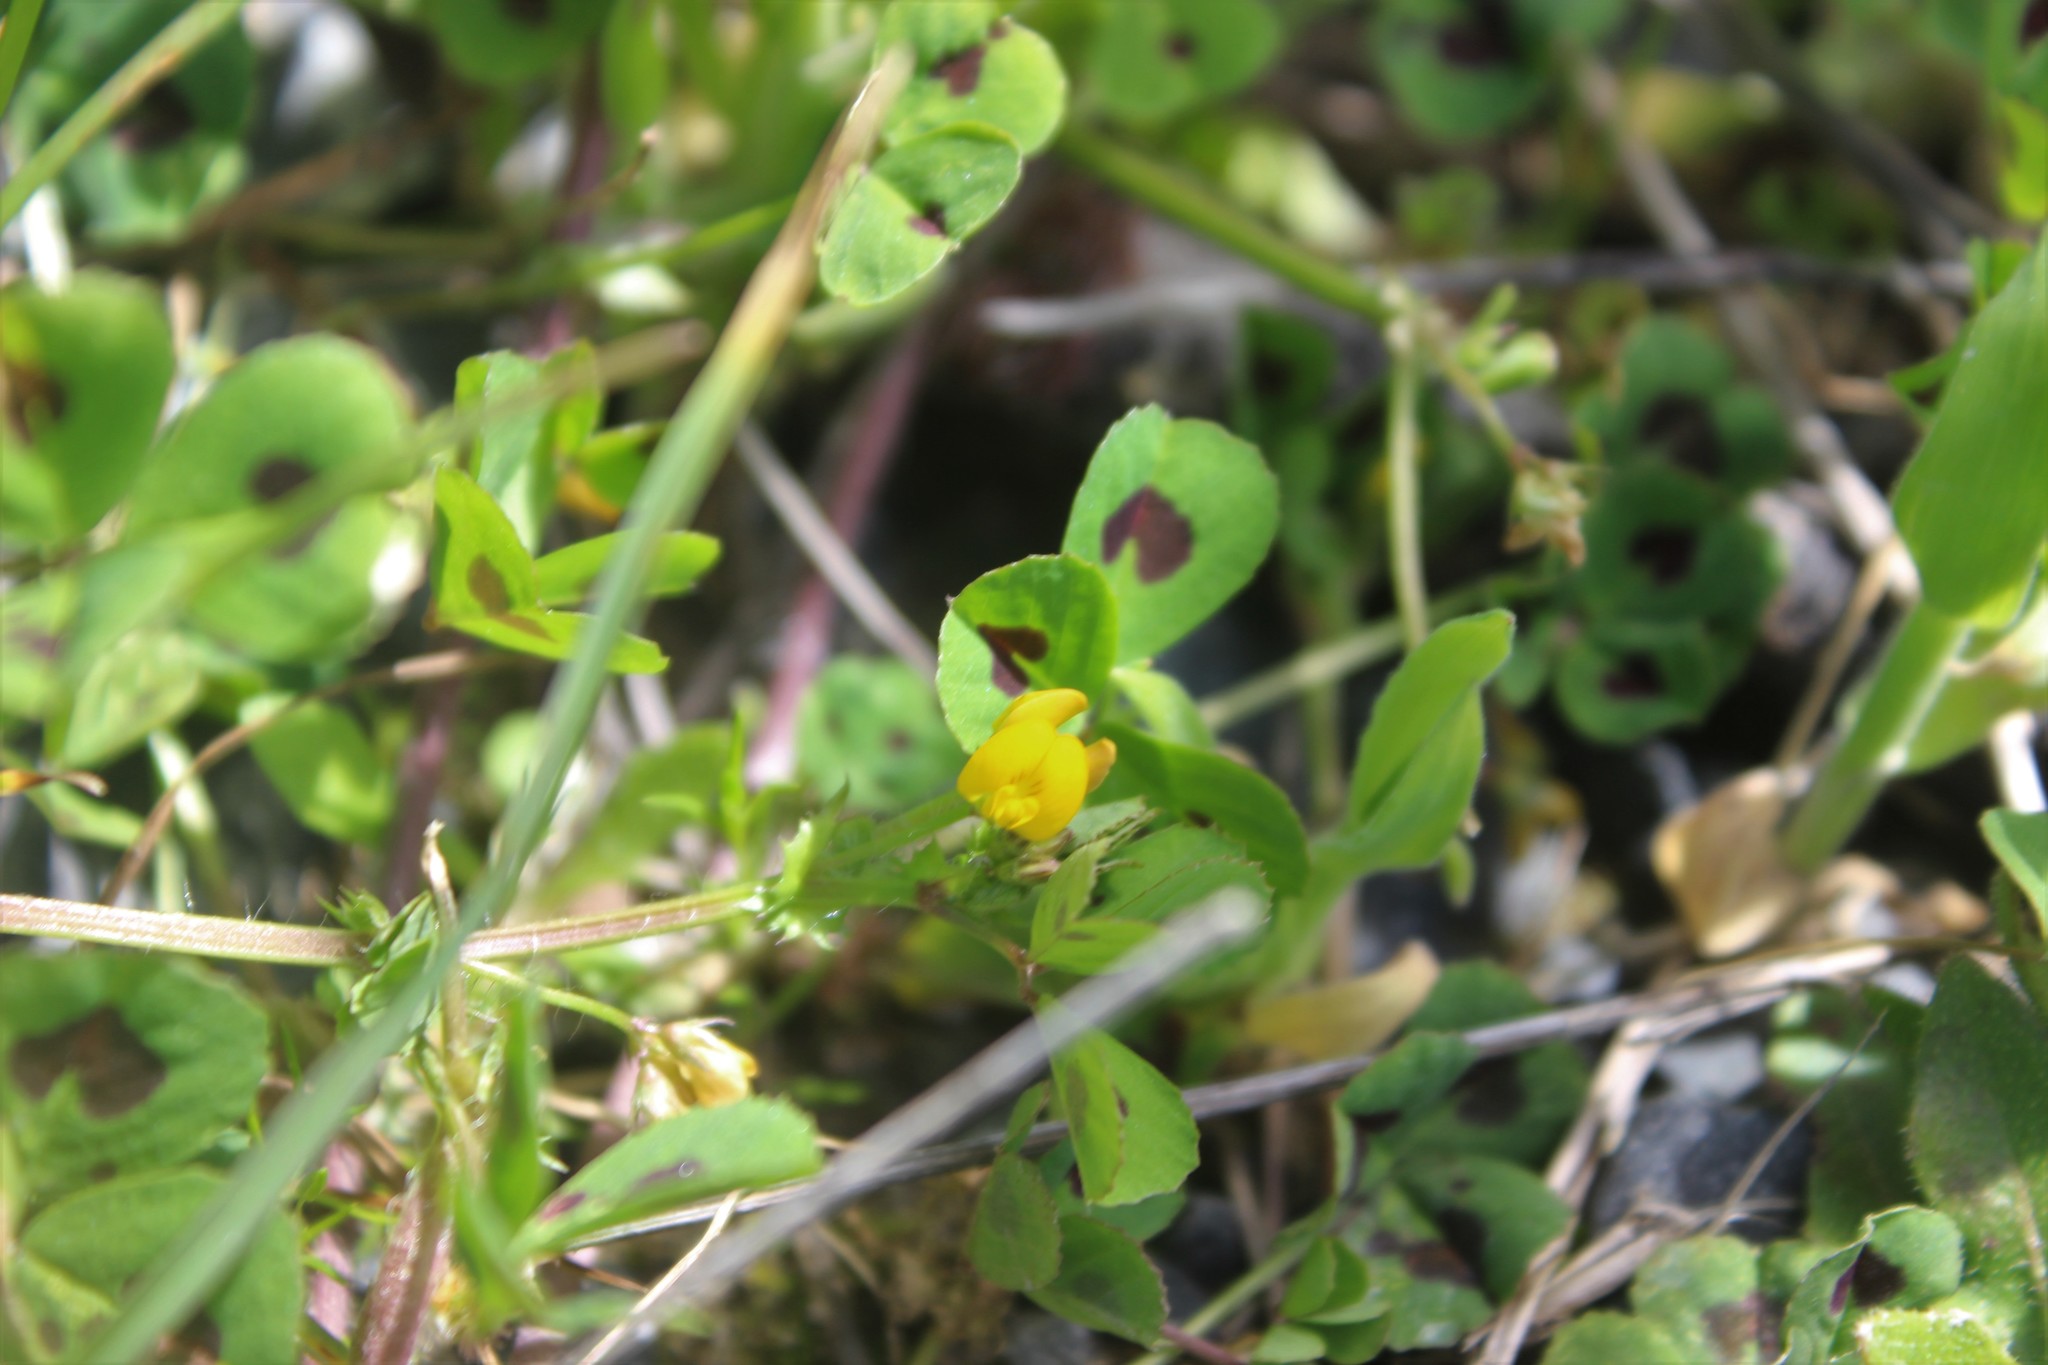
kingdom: Plantae
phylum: Tracheophyta
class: Magnoliopsida
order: Fabales
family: Fabaceae
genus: Medicago
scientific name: Medicago arabica
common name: Spotted medick
